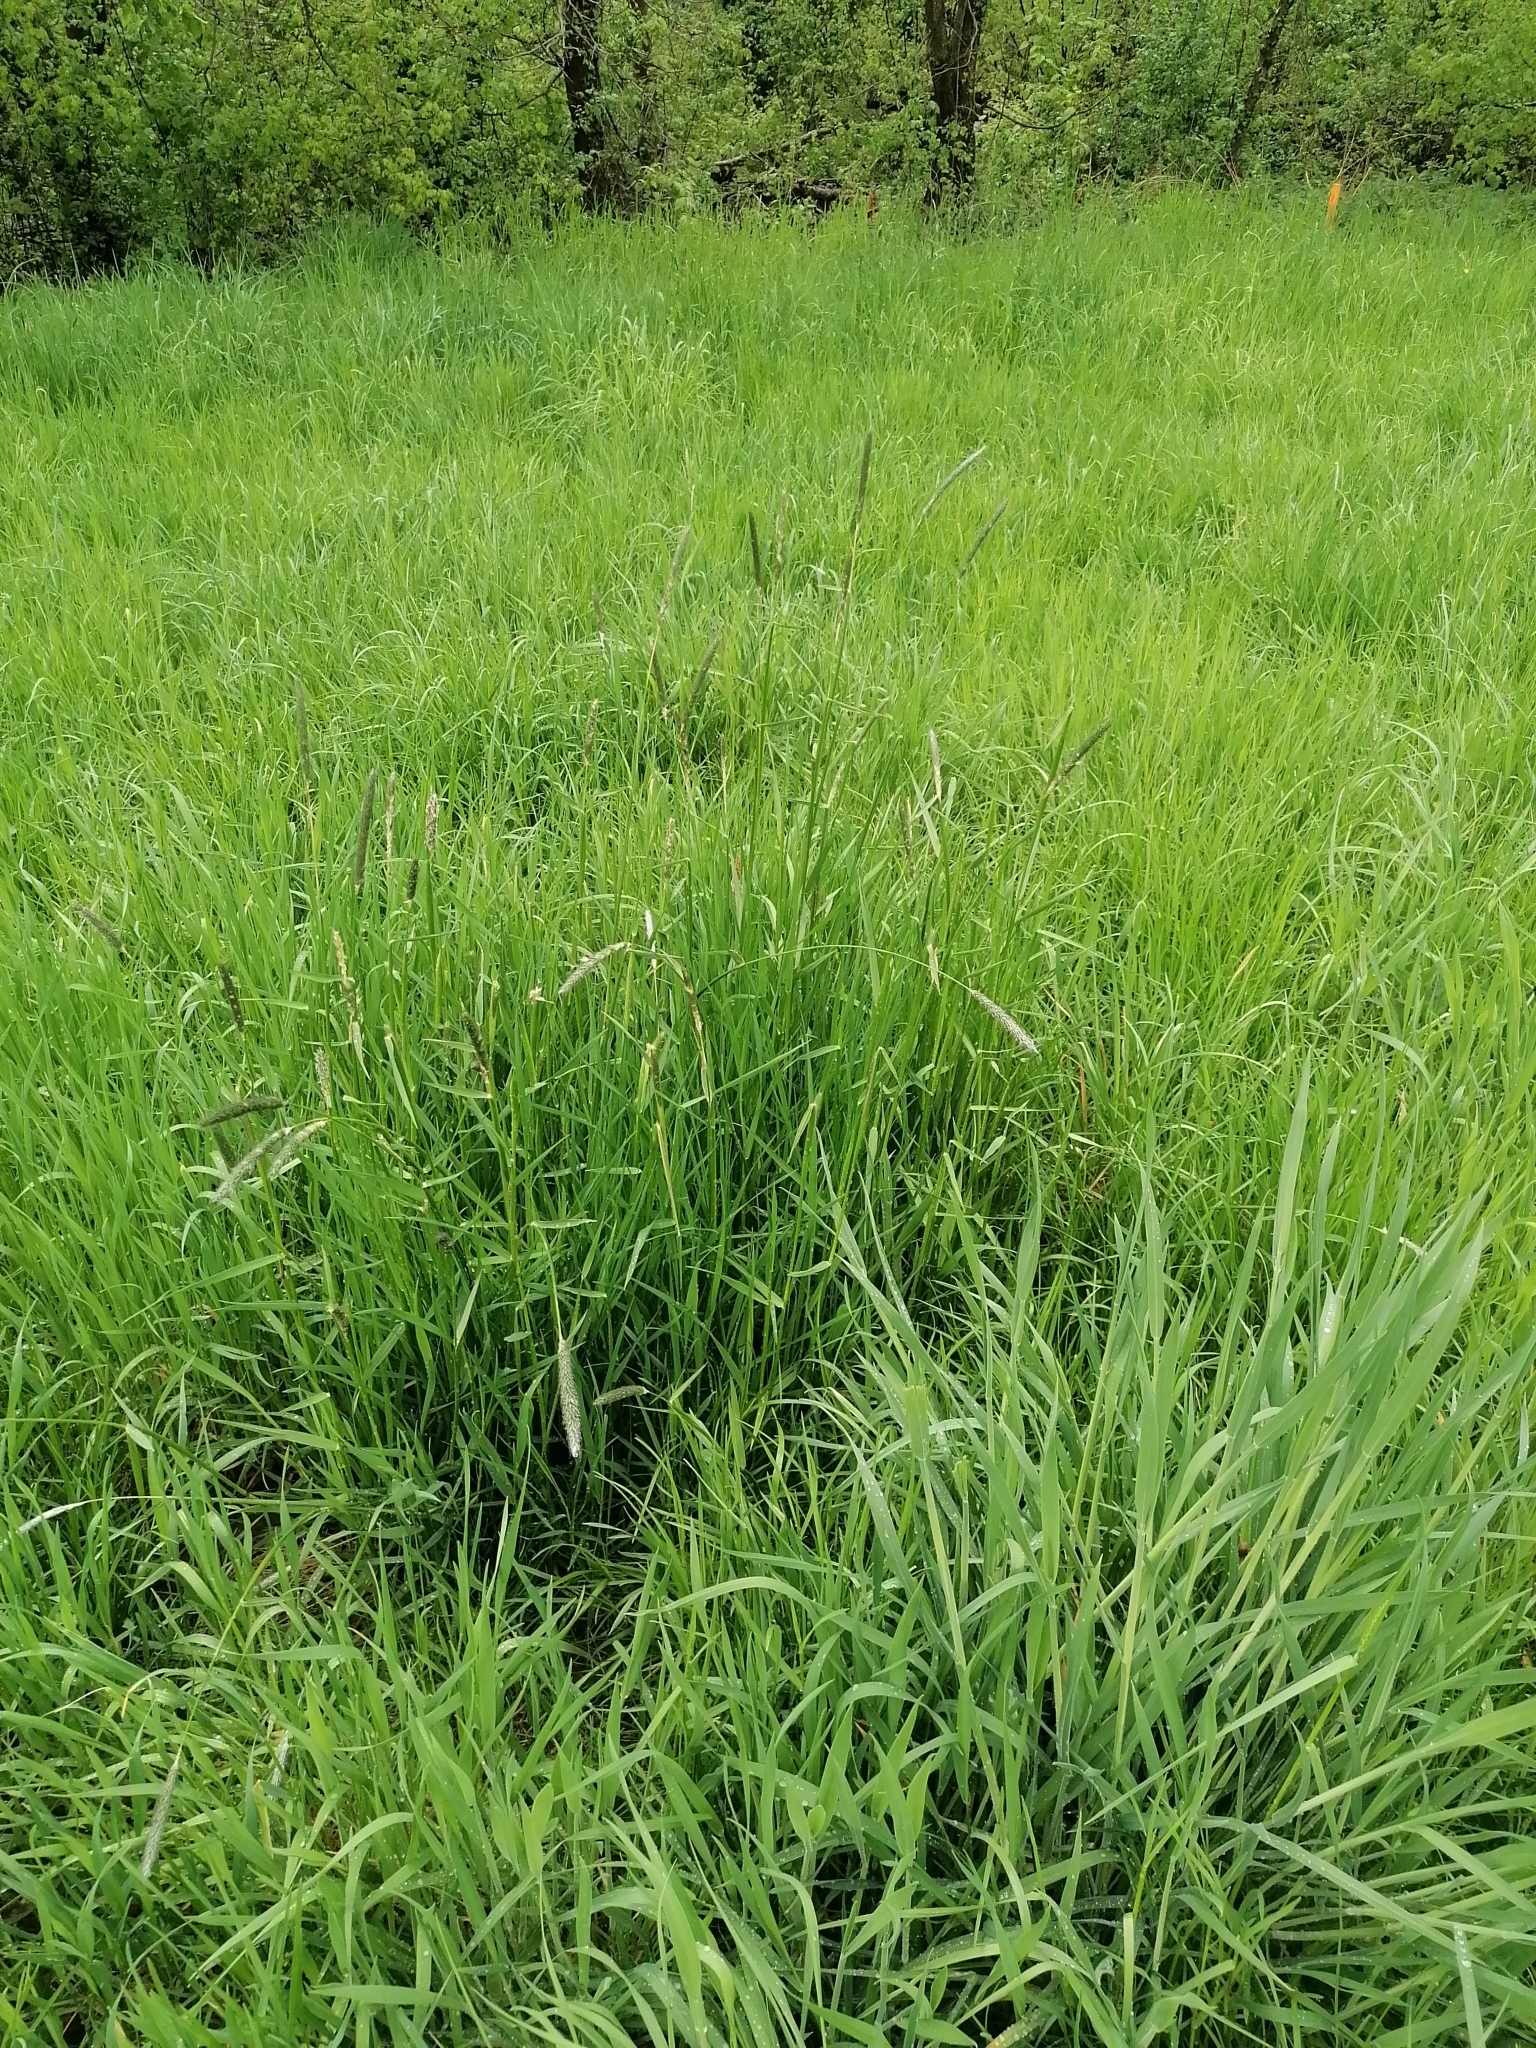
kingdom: Plantae
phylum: Tracheophyta
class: Liliopsida
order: Poales
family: Poaceae
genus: Alopecurus
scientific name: Alopecurus pratensis
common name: Meadow foxtail
